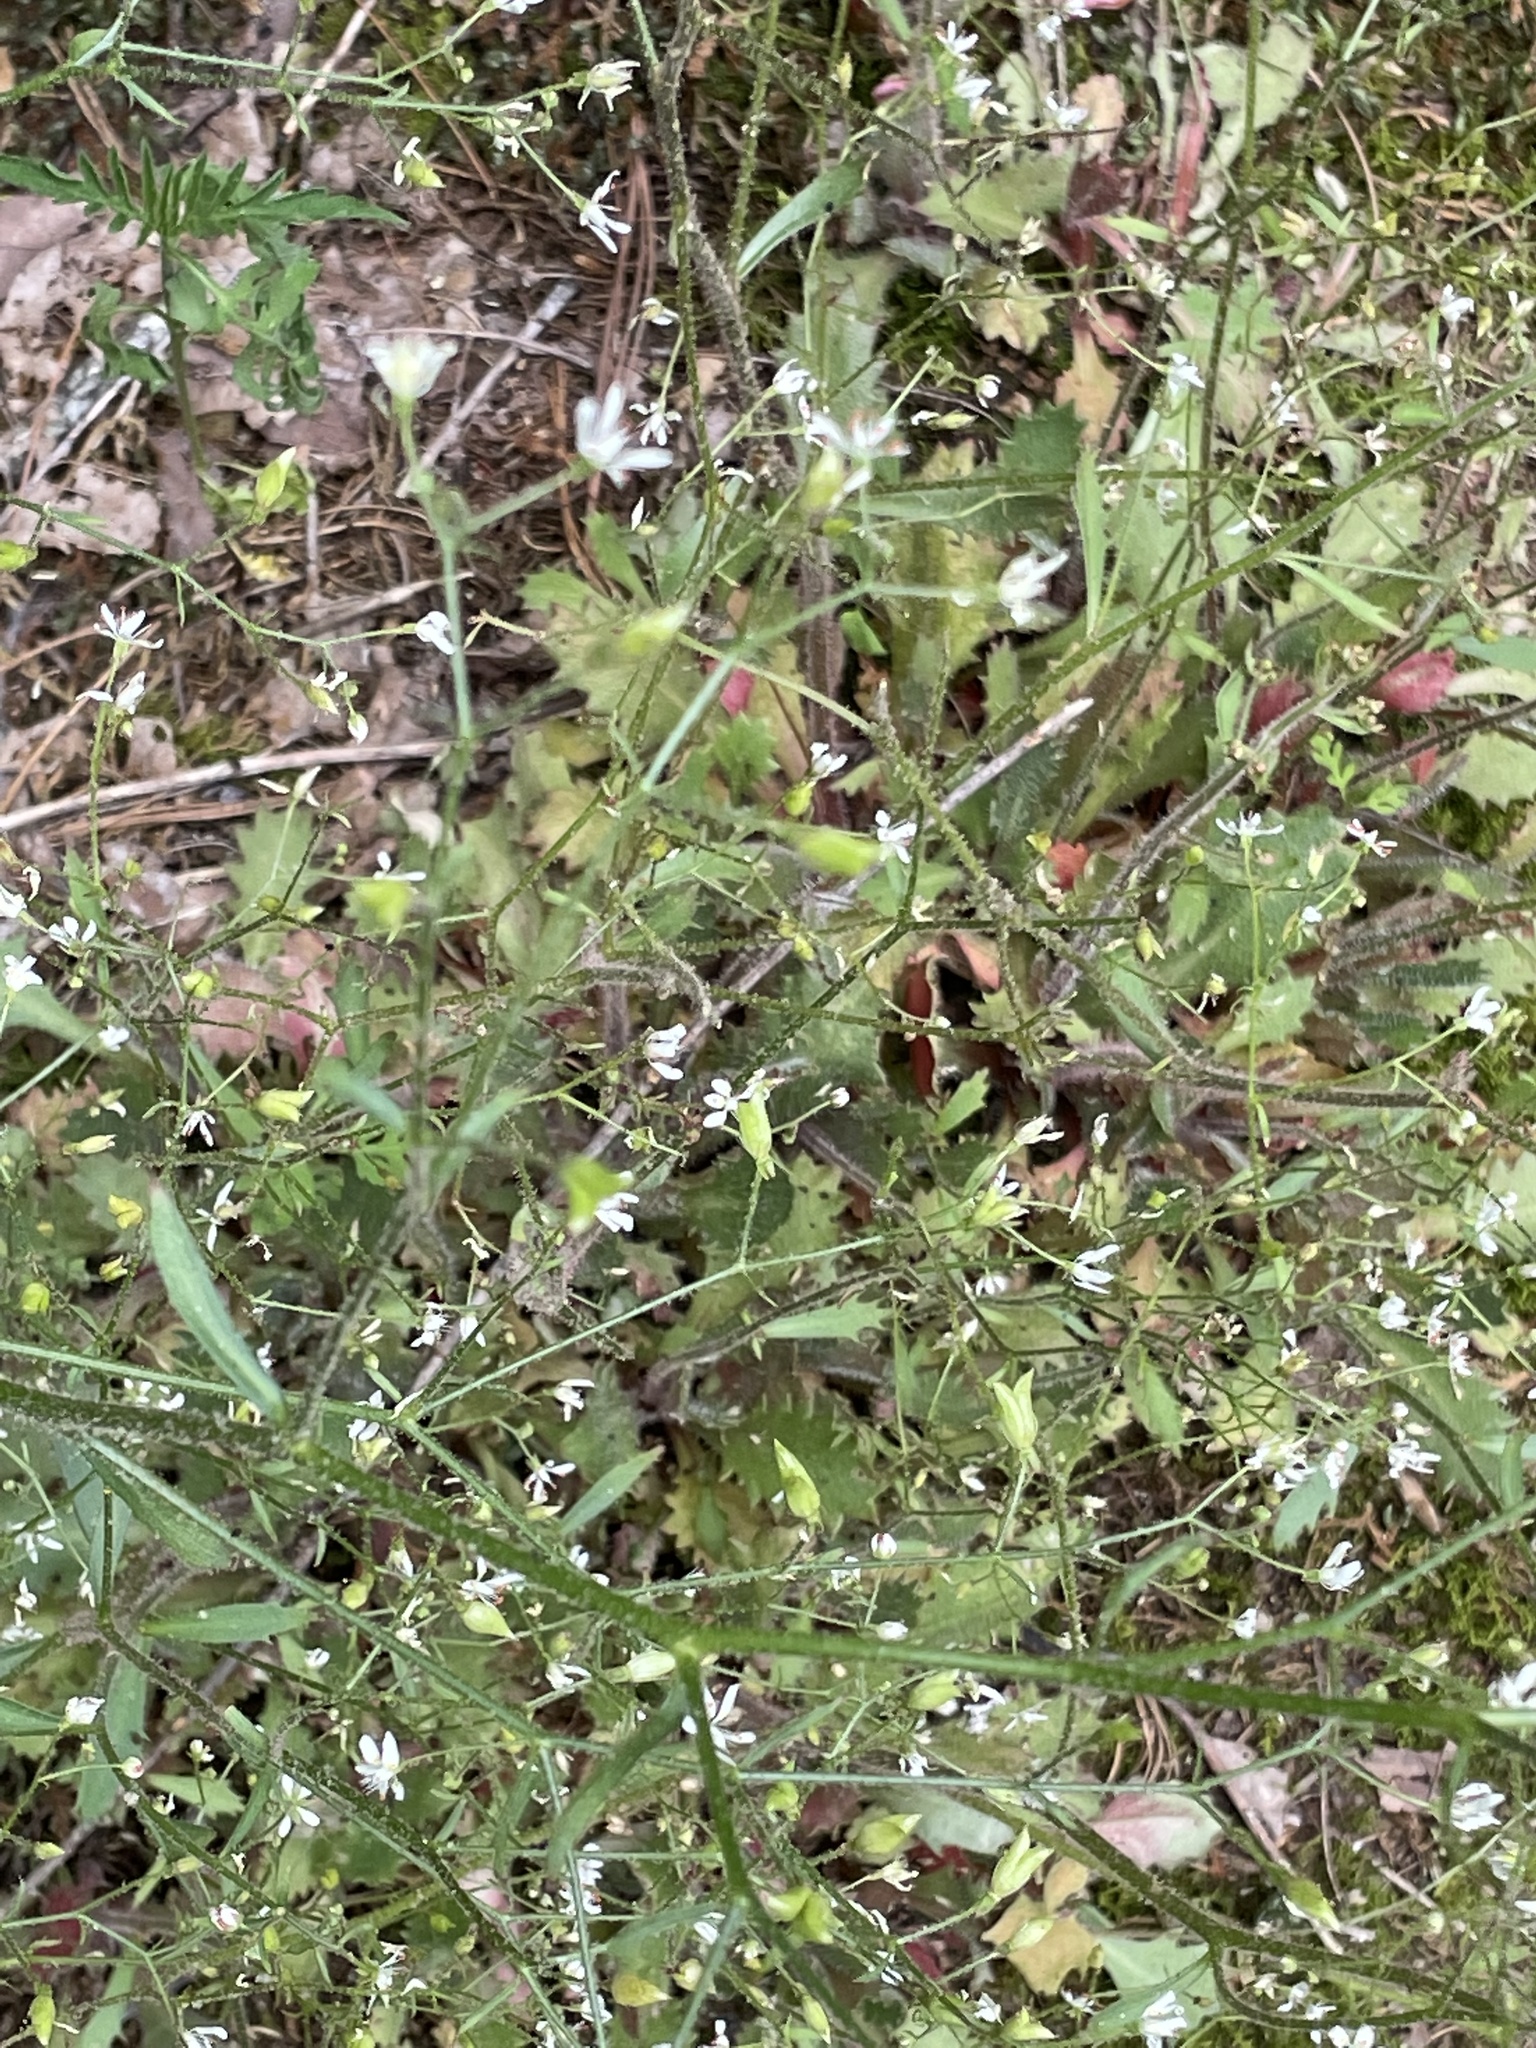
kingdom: Plantae
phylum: Tracheophyta
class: Magnoliopsida
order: Saxifragales
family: Saxifragaceae
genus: Micranthes
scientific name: Micranthes petiolaris
